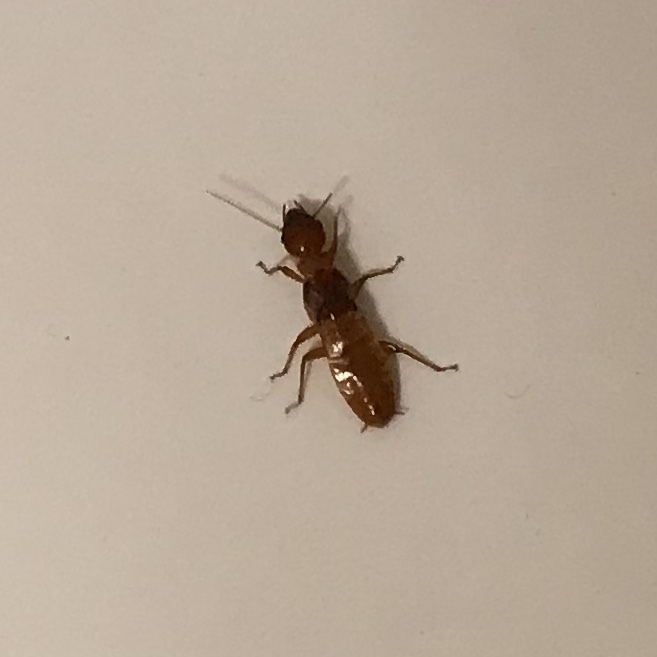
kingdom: Animalia
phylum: Arthropoda
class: Insecta
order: Blattodea
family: Archotermopsidae
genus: Zootermopsis
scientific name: Zootermopsis angusticollis
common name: Rottenwood termite
